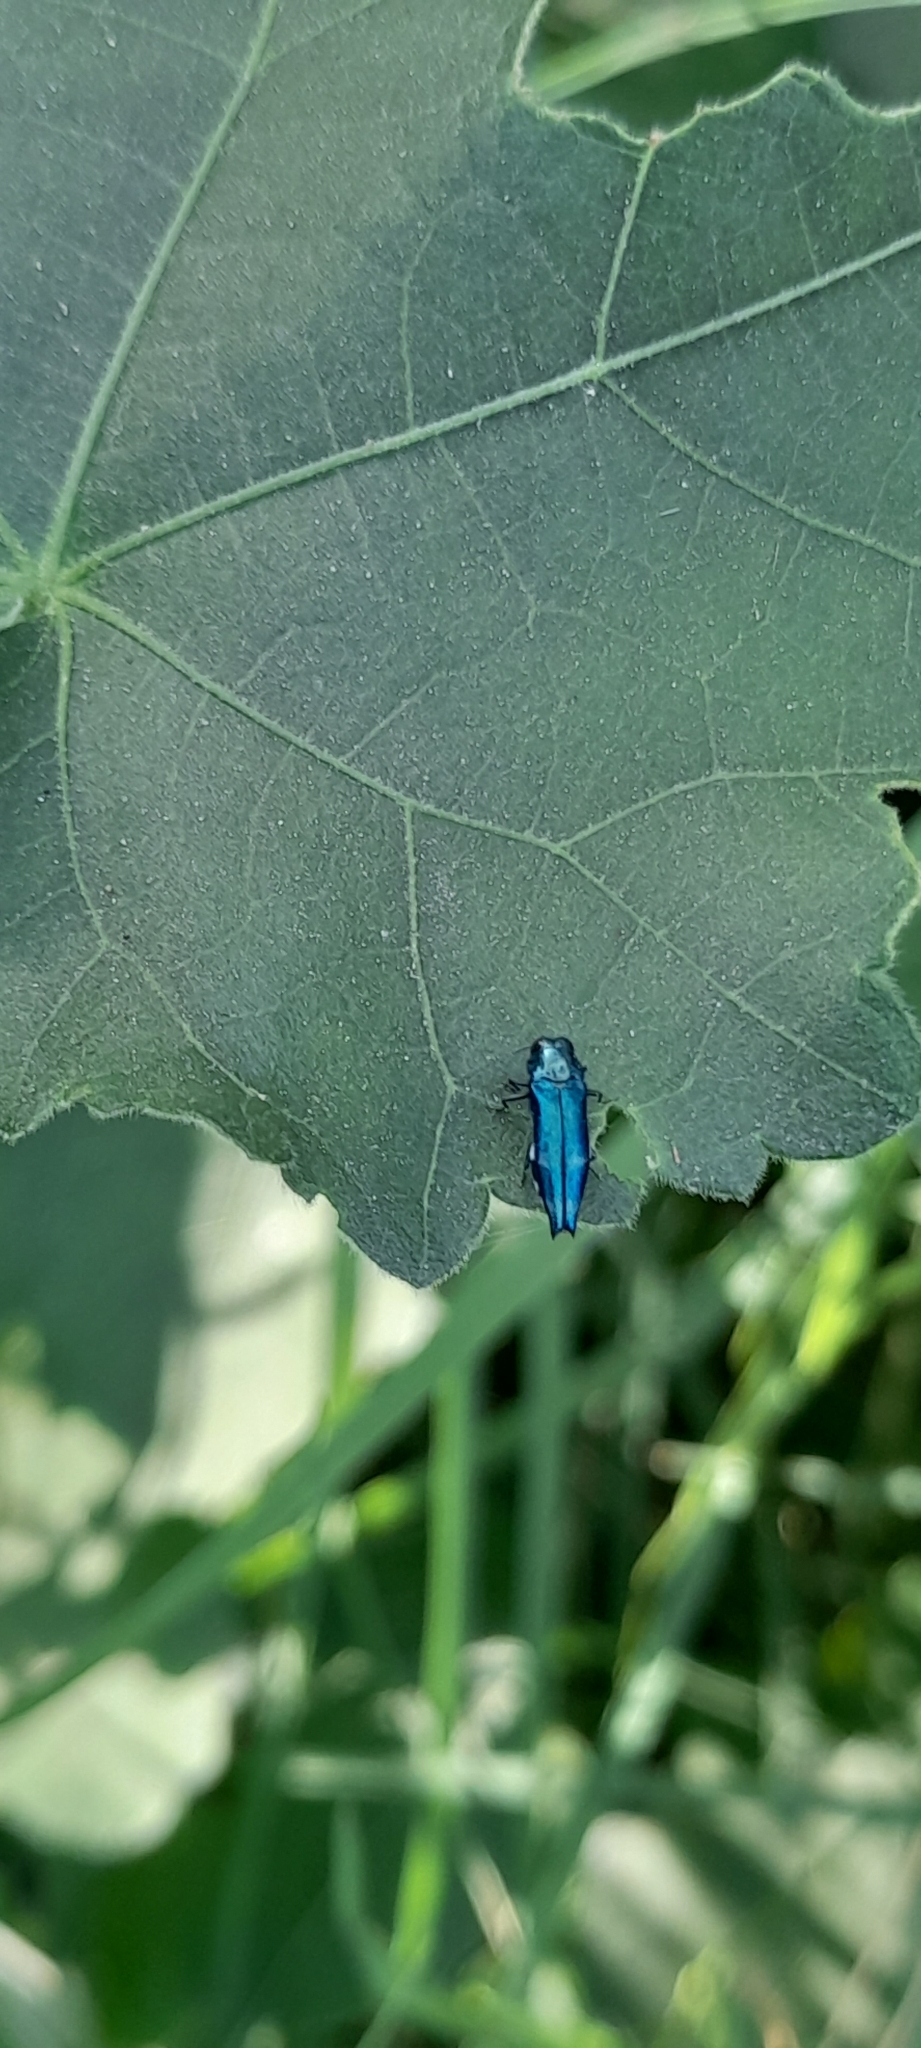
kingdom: Animalia
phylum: Arthropoda
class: Insecta
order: Coleoptera
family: Buprestidae
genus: Agrilus
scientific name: Agrilus acutus
